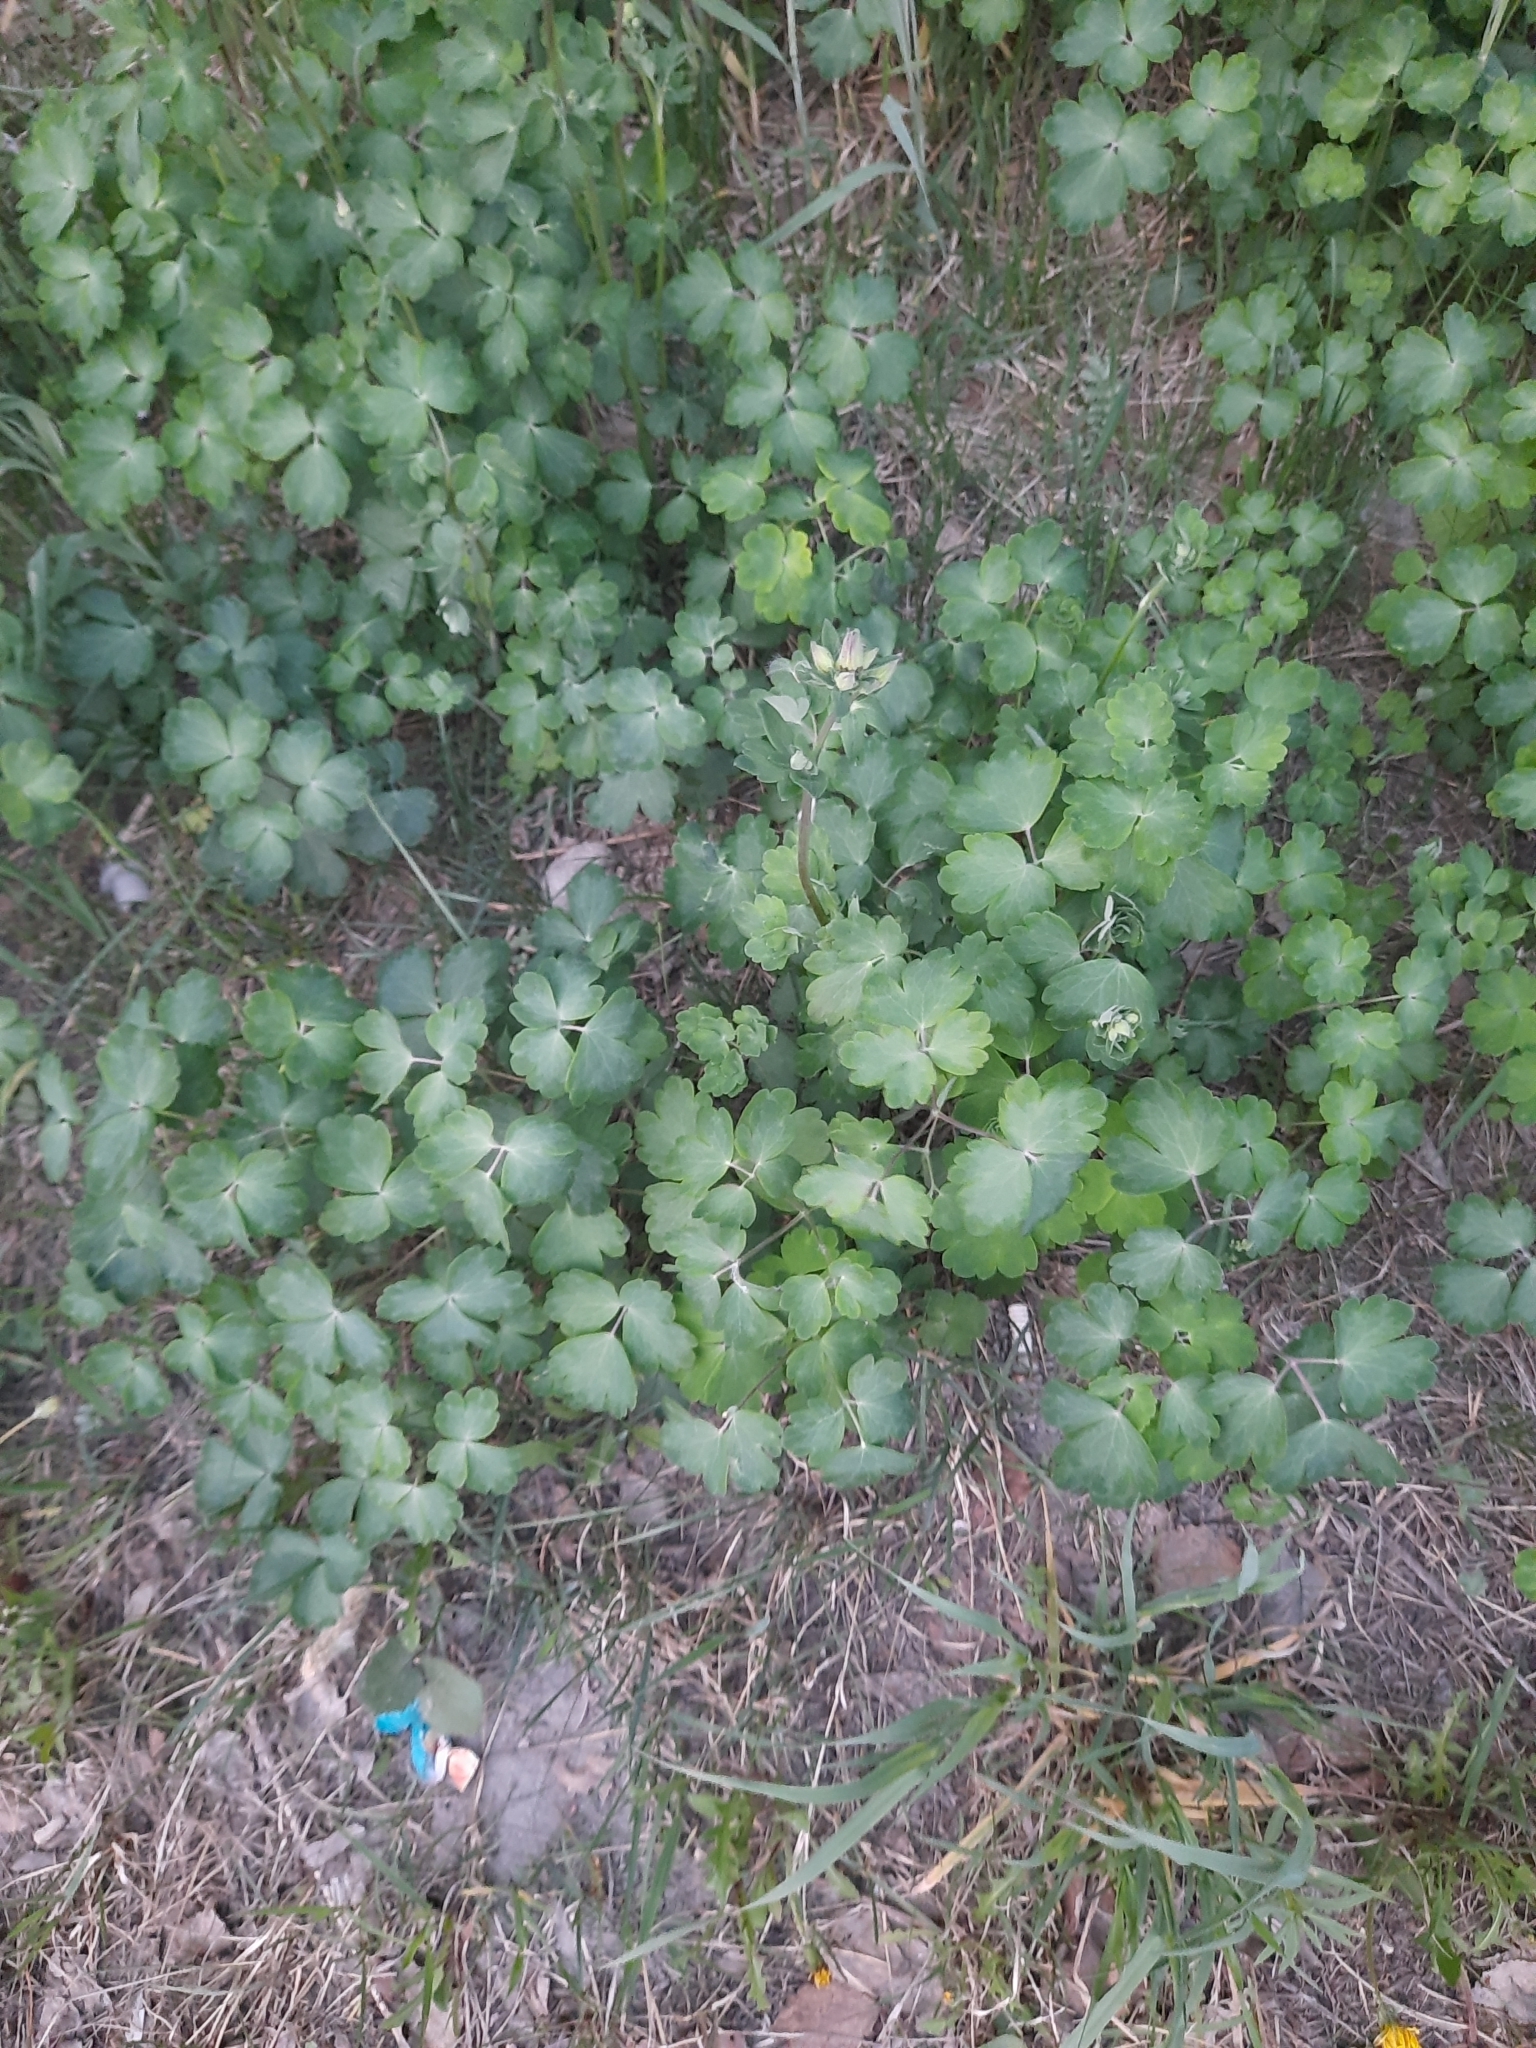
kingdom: Plantae
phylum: Tracheophyta
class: Magnoliopsida
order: Ranunculales
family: Ranunculaceae
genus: Aquilegia
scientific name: Aquilegia vulgaris
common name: Columbine
